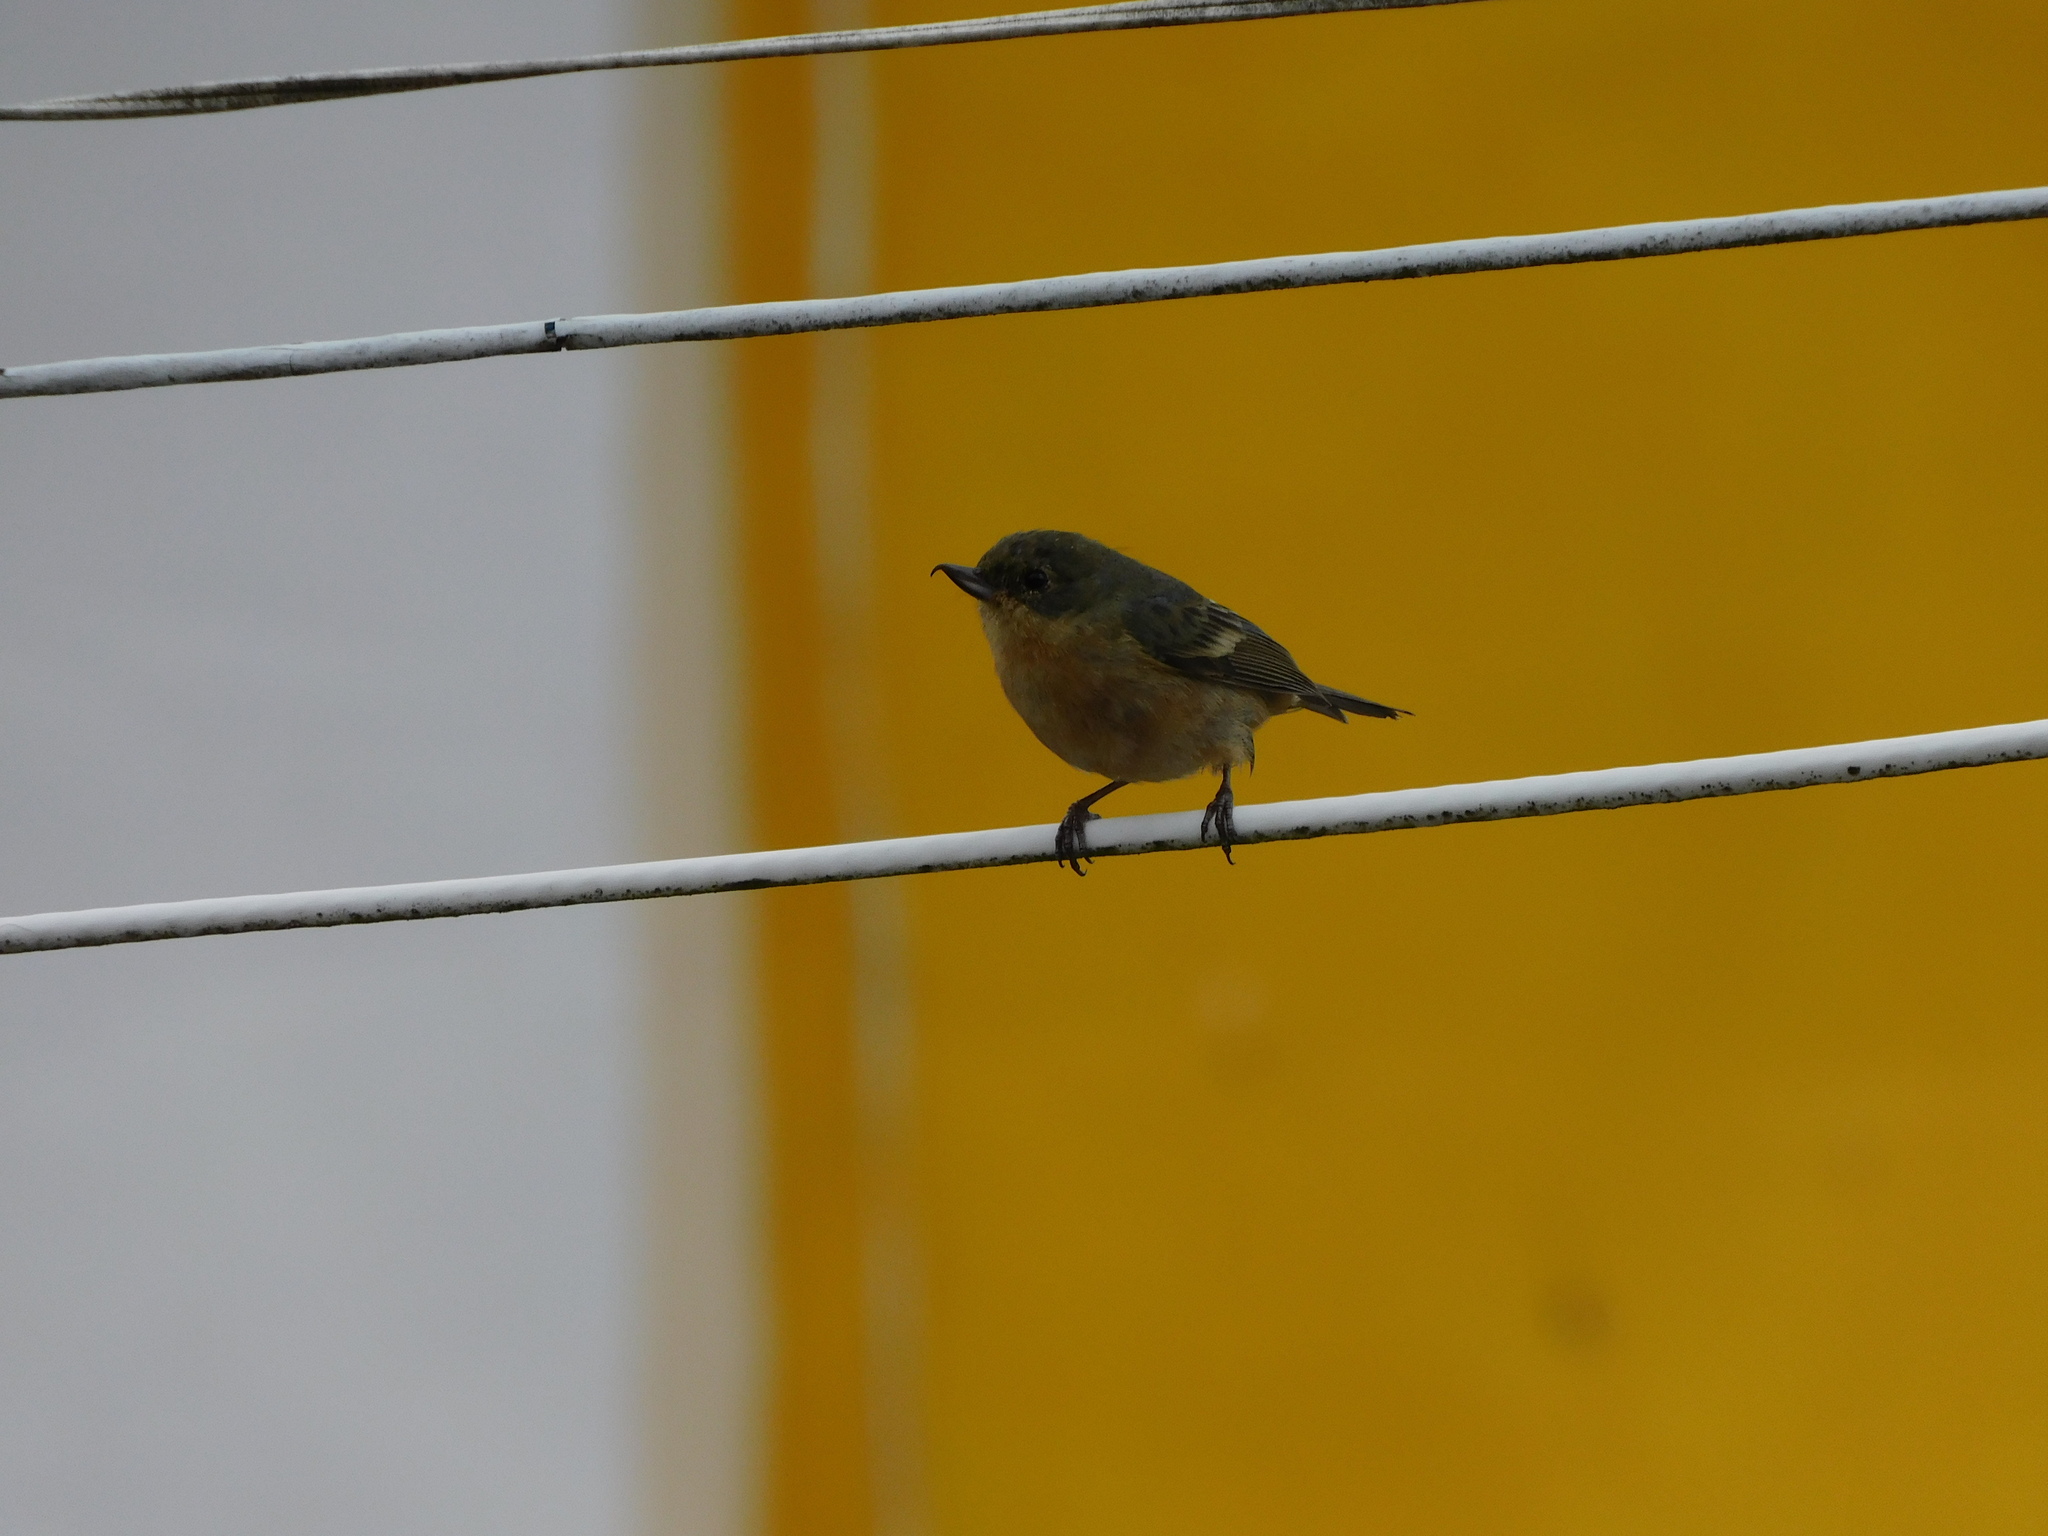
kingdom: Animalia
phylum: Chordata
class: Aves
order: Passeriformes
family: Thraupidae
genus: Diglossa
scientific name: Diglossa sittoides
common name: Rusty flowerpiercer
